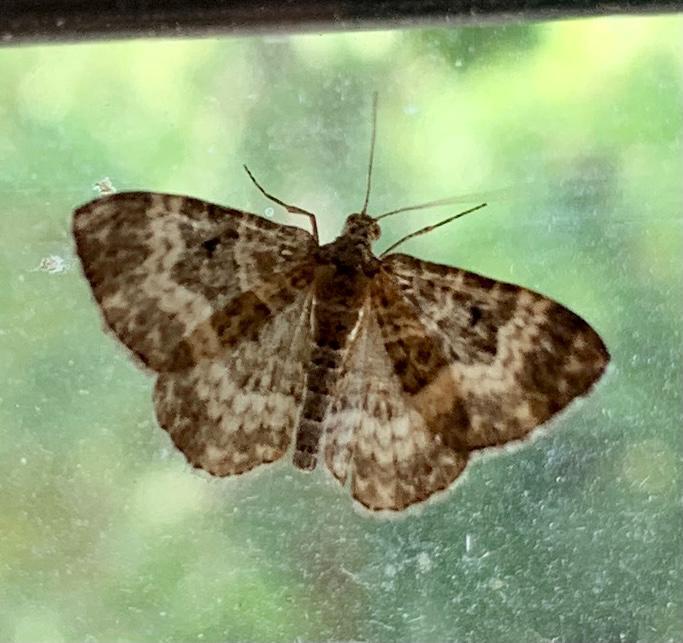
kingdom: Animalia
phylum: Arthropoda
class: Insecta
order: Lepidoptera
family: Geometridae
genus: Epirrhoe
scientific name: Epirrhoe alternata
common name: Common carpet
